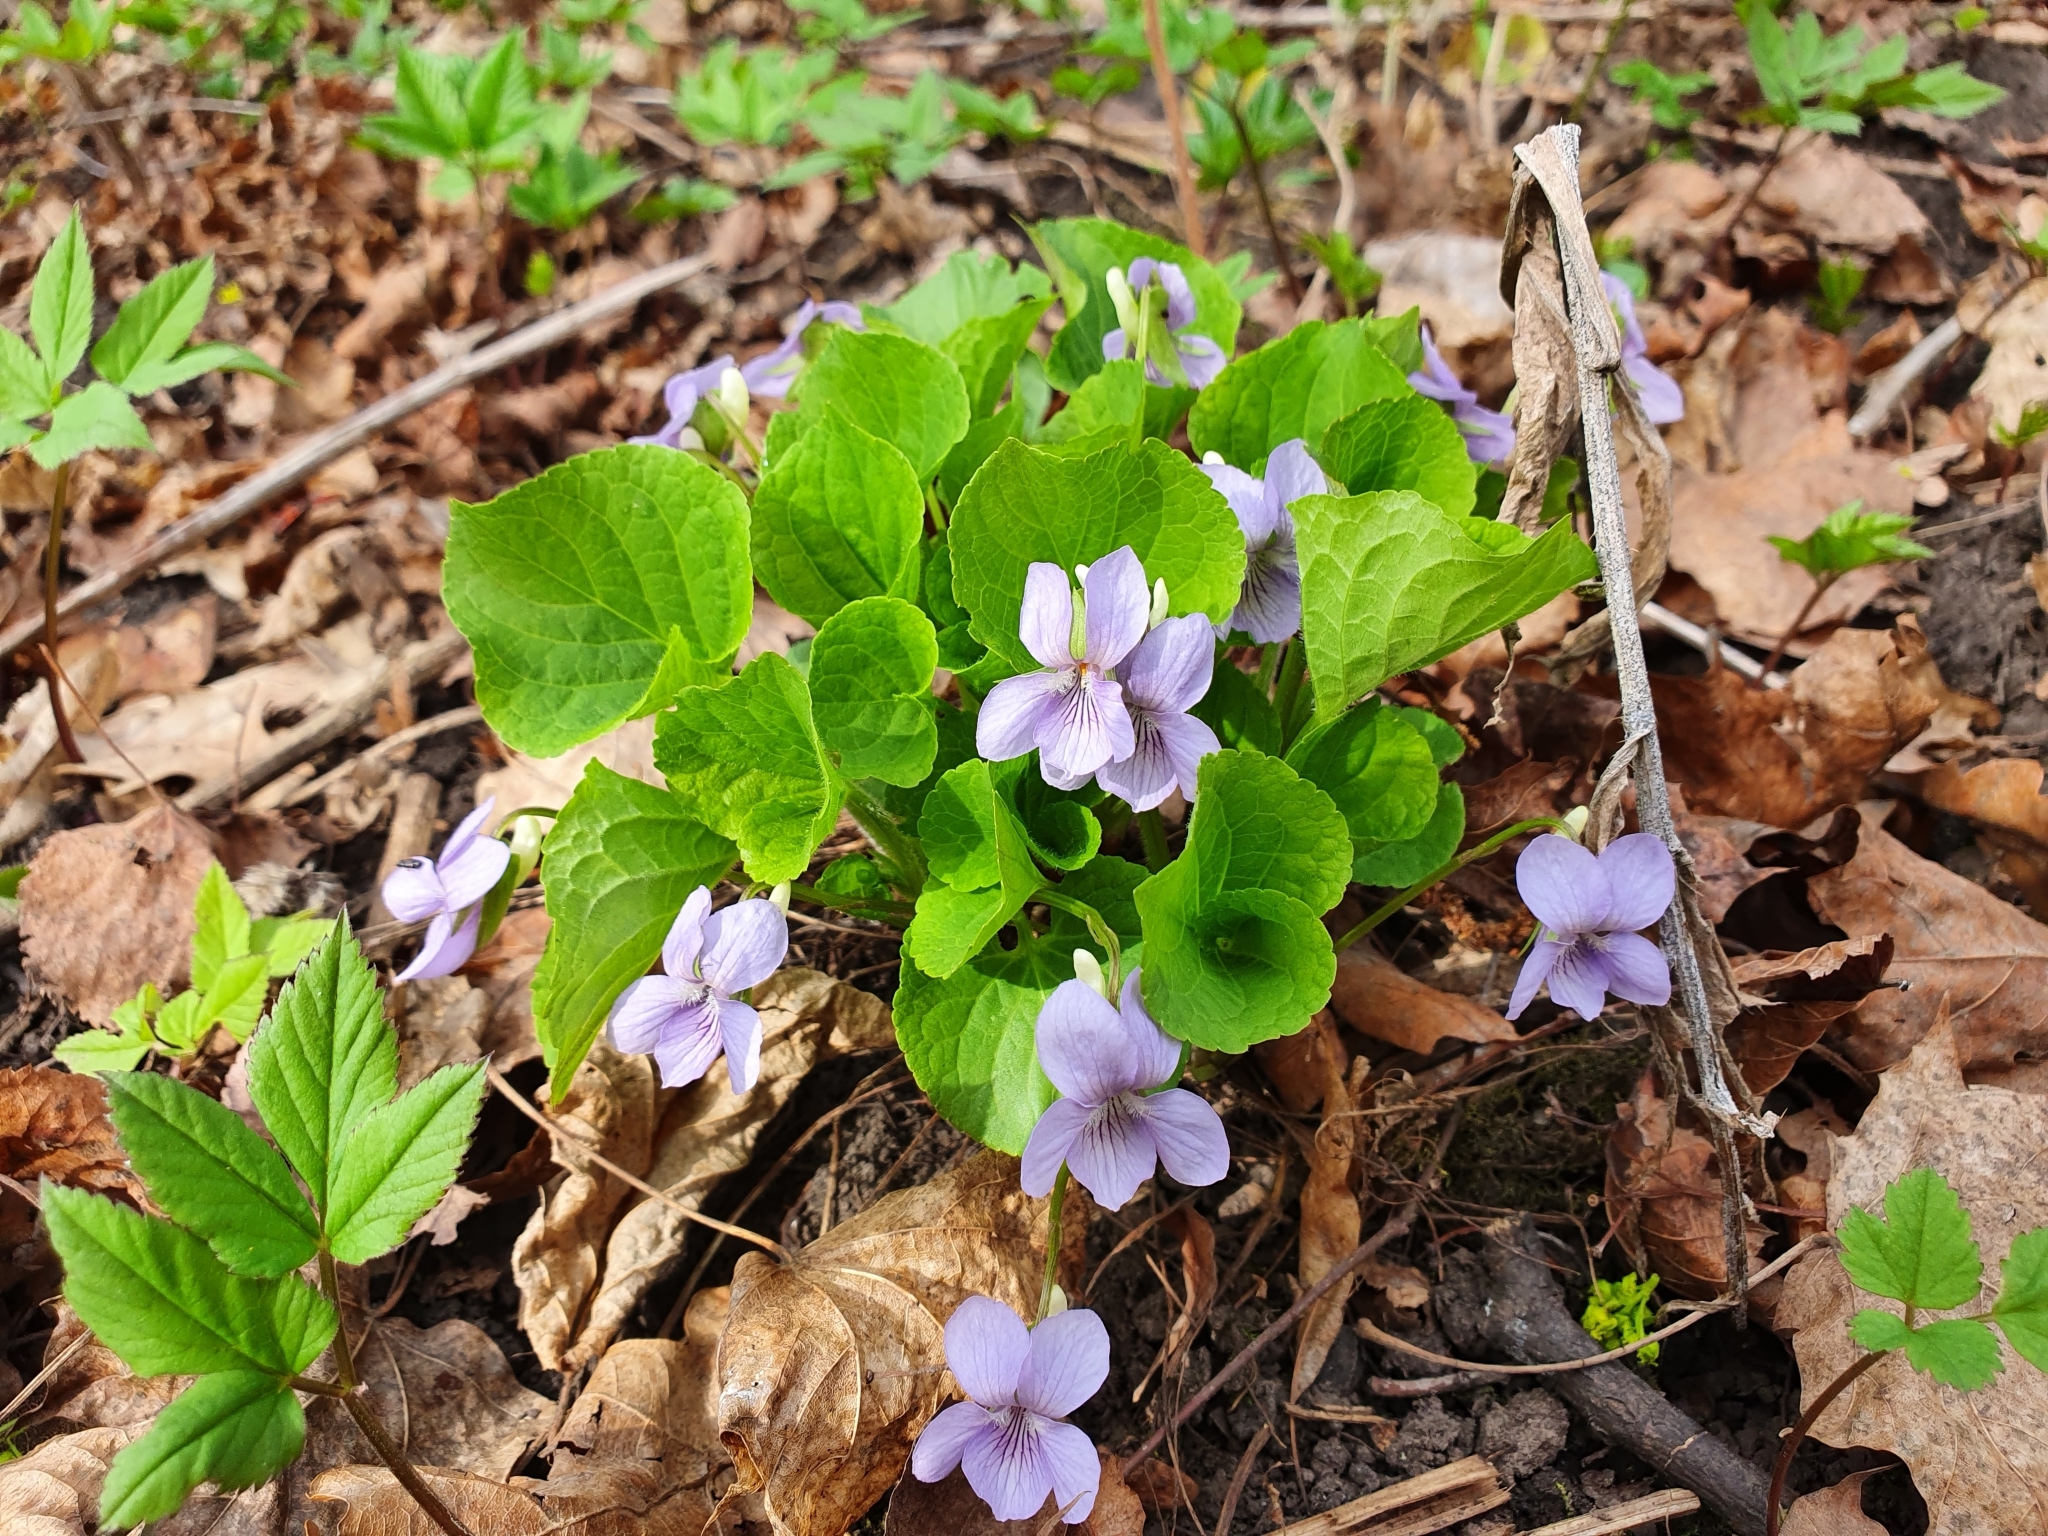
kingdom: Plantae
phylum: Tracheophyta
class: Magnoliopsida
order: Malpighiales
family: Violaceae
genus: Viola
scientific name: Viola mirabilis
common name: Wonder violet
